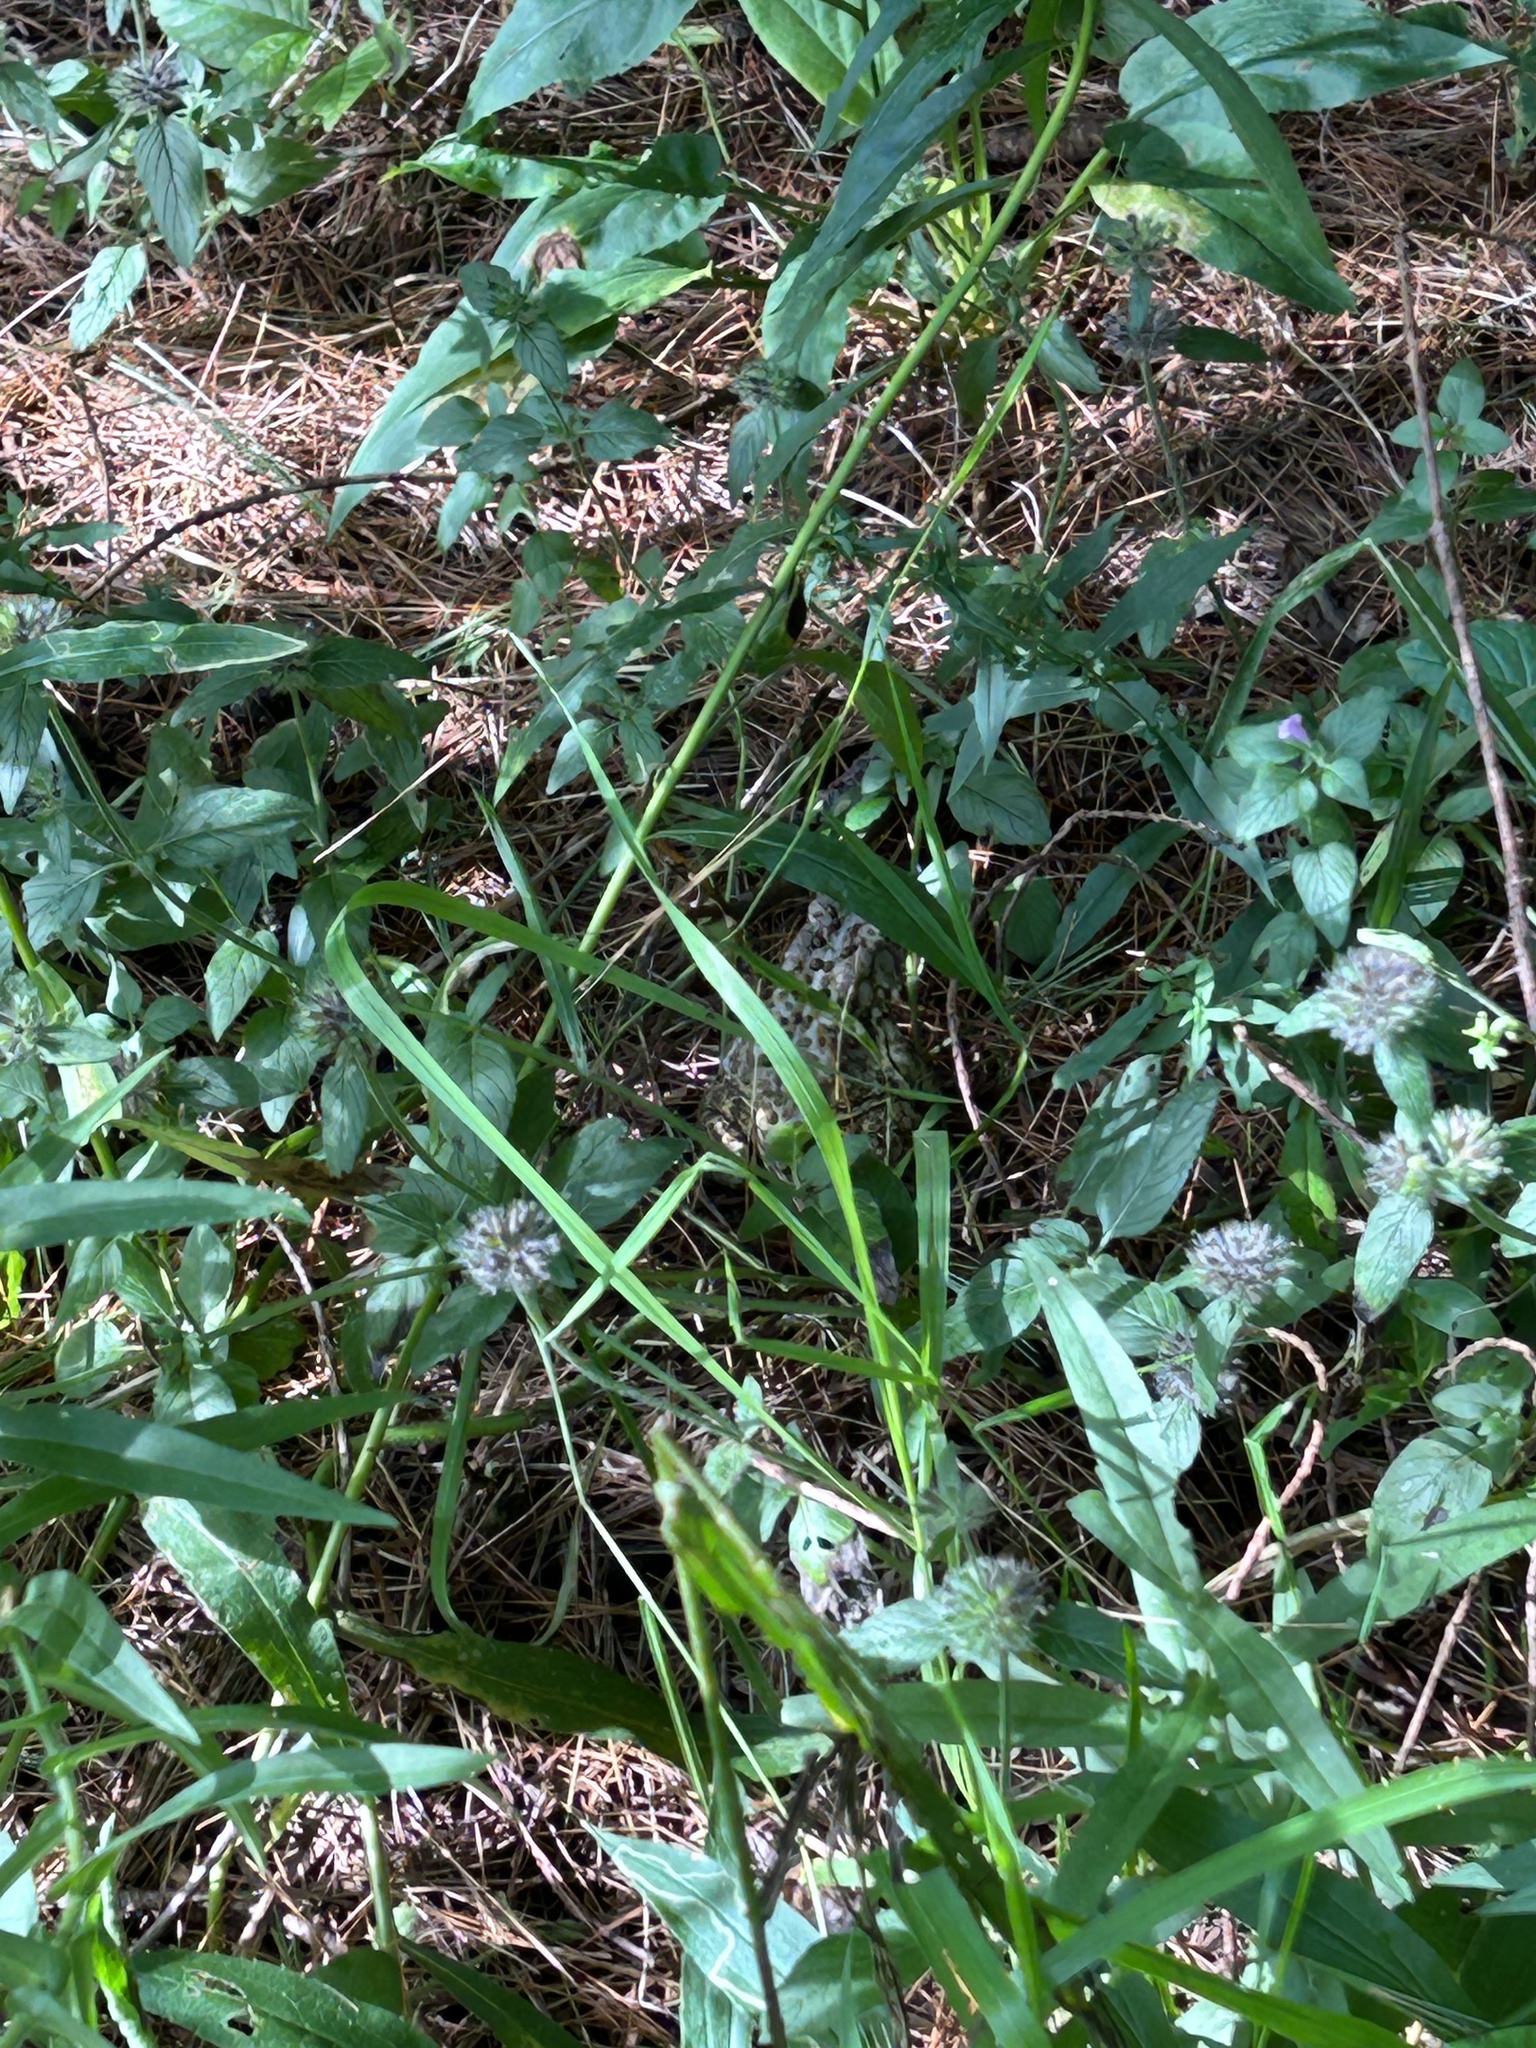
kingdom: Animalia
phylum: Chordata
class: Amphibia
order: Anura
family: Bufonidae
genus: Anaxyrus
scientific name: Anaxyrus americanus
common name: American toad
